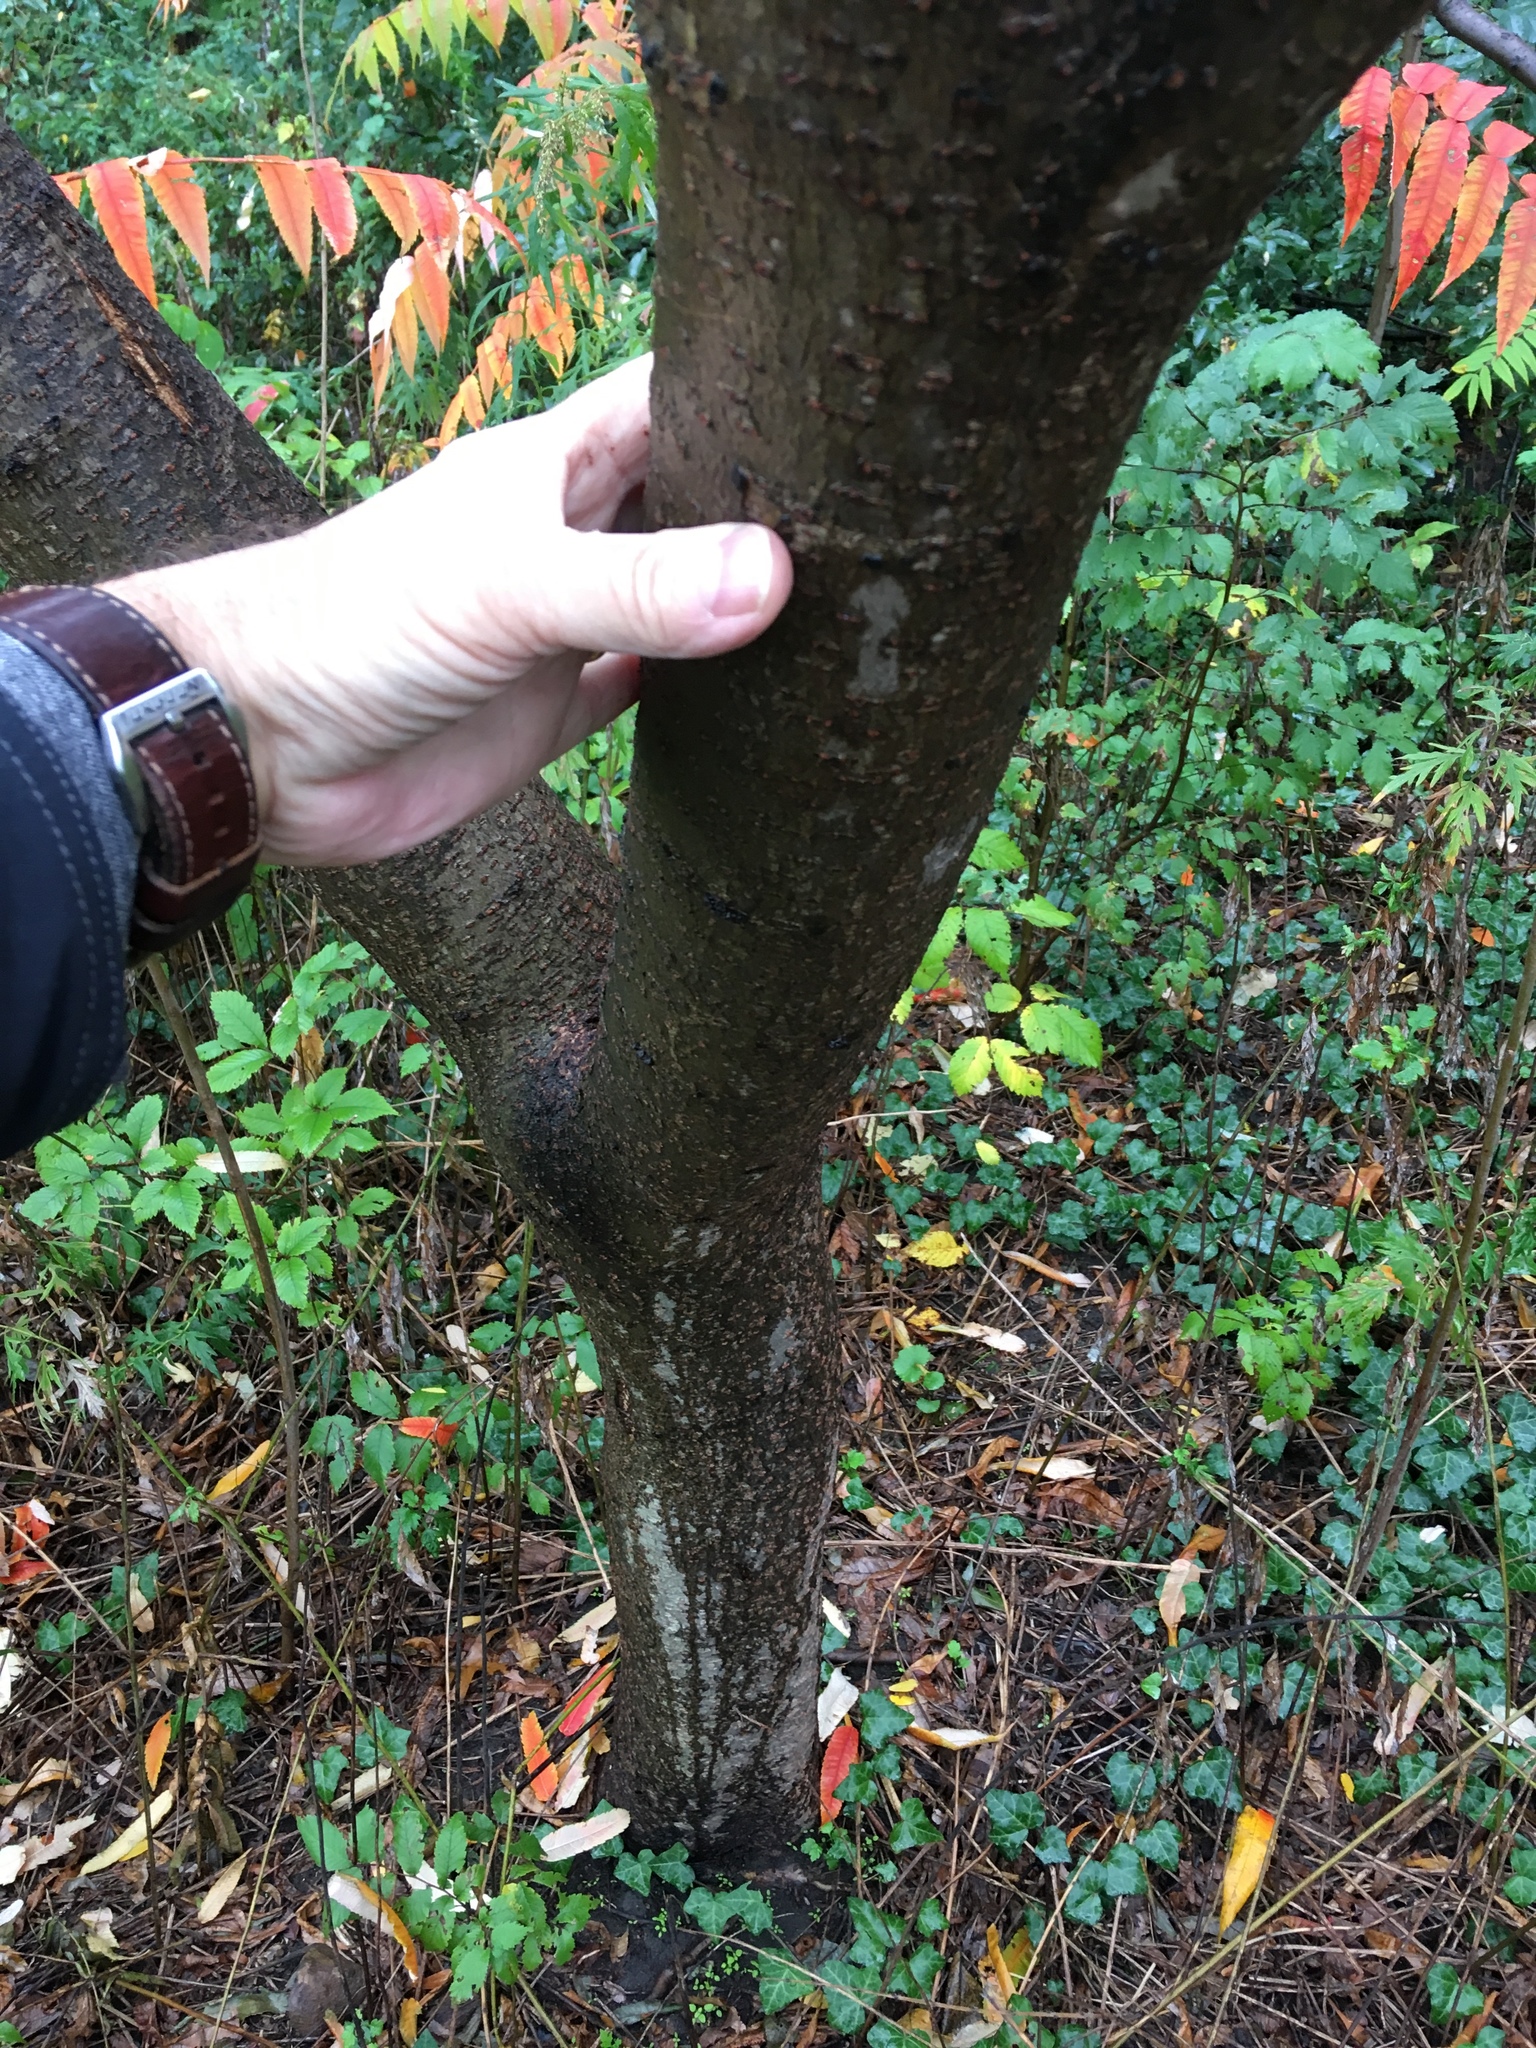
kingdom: Plantae
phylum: Tracheophyta
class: Magnoliopsida
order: Sapindales
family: Anacardiaceae
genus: Rhus
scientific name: Rhus typhina
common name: Staghorn sumac
